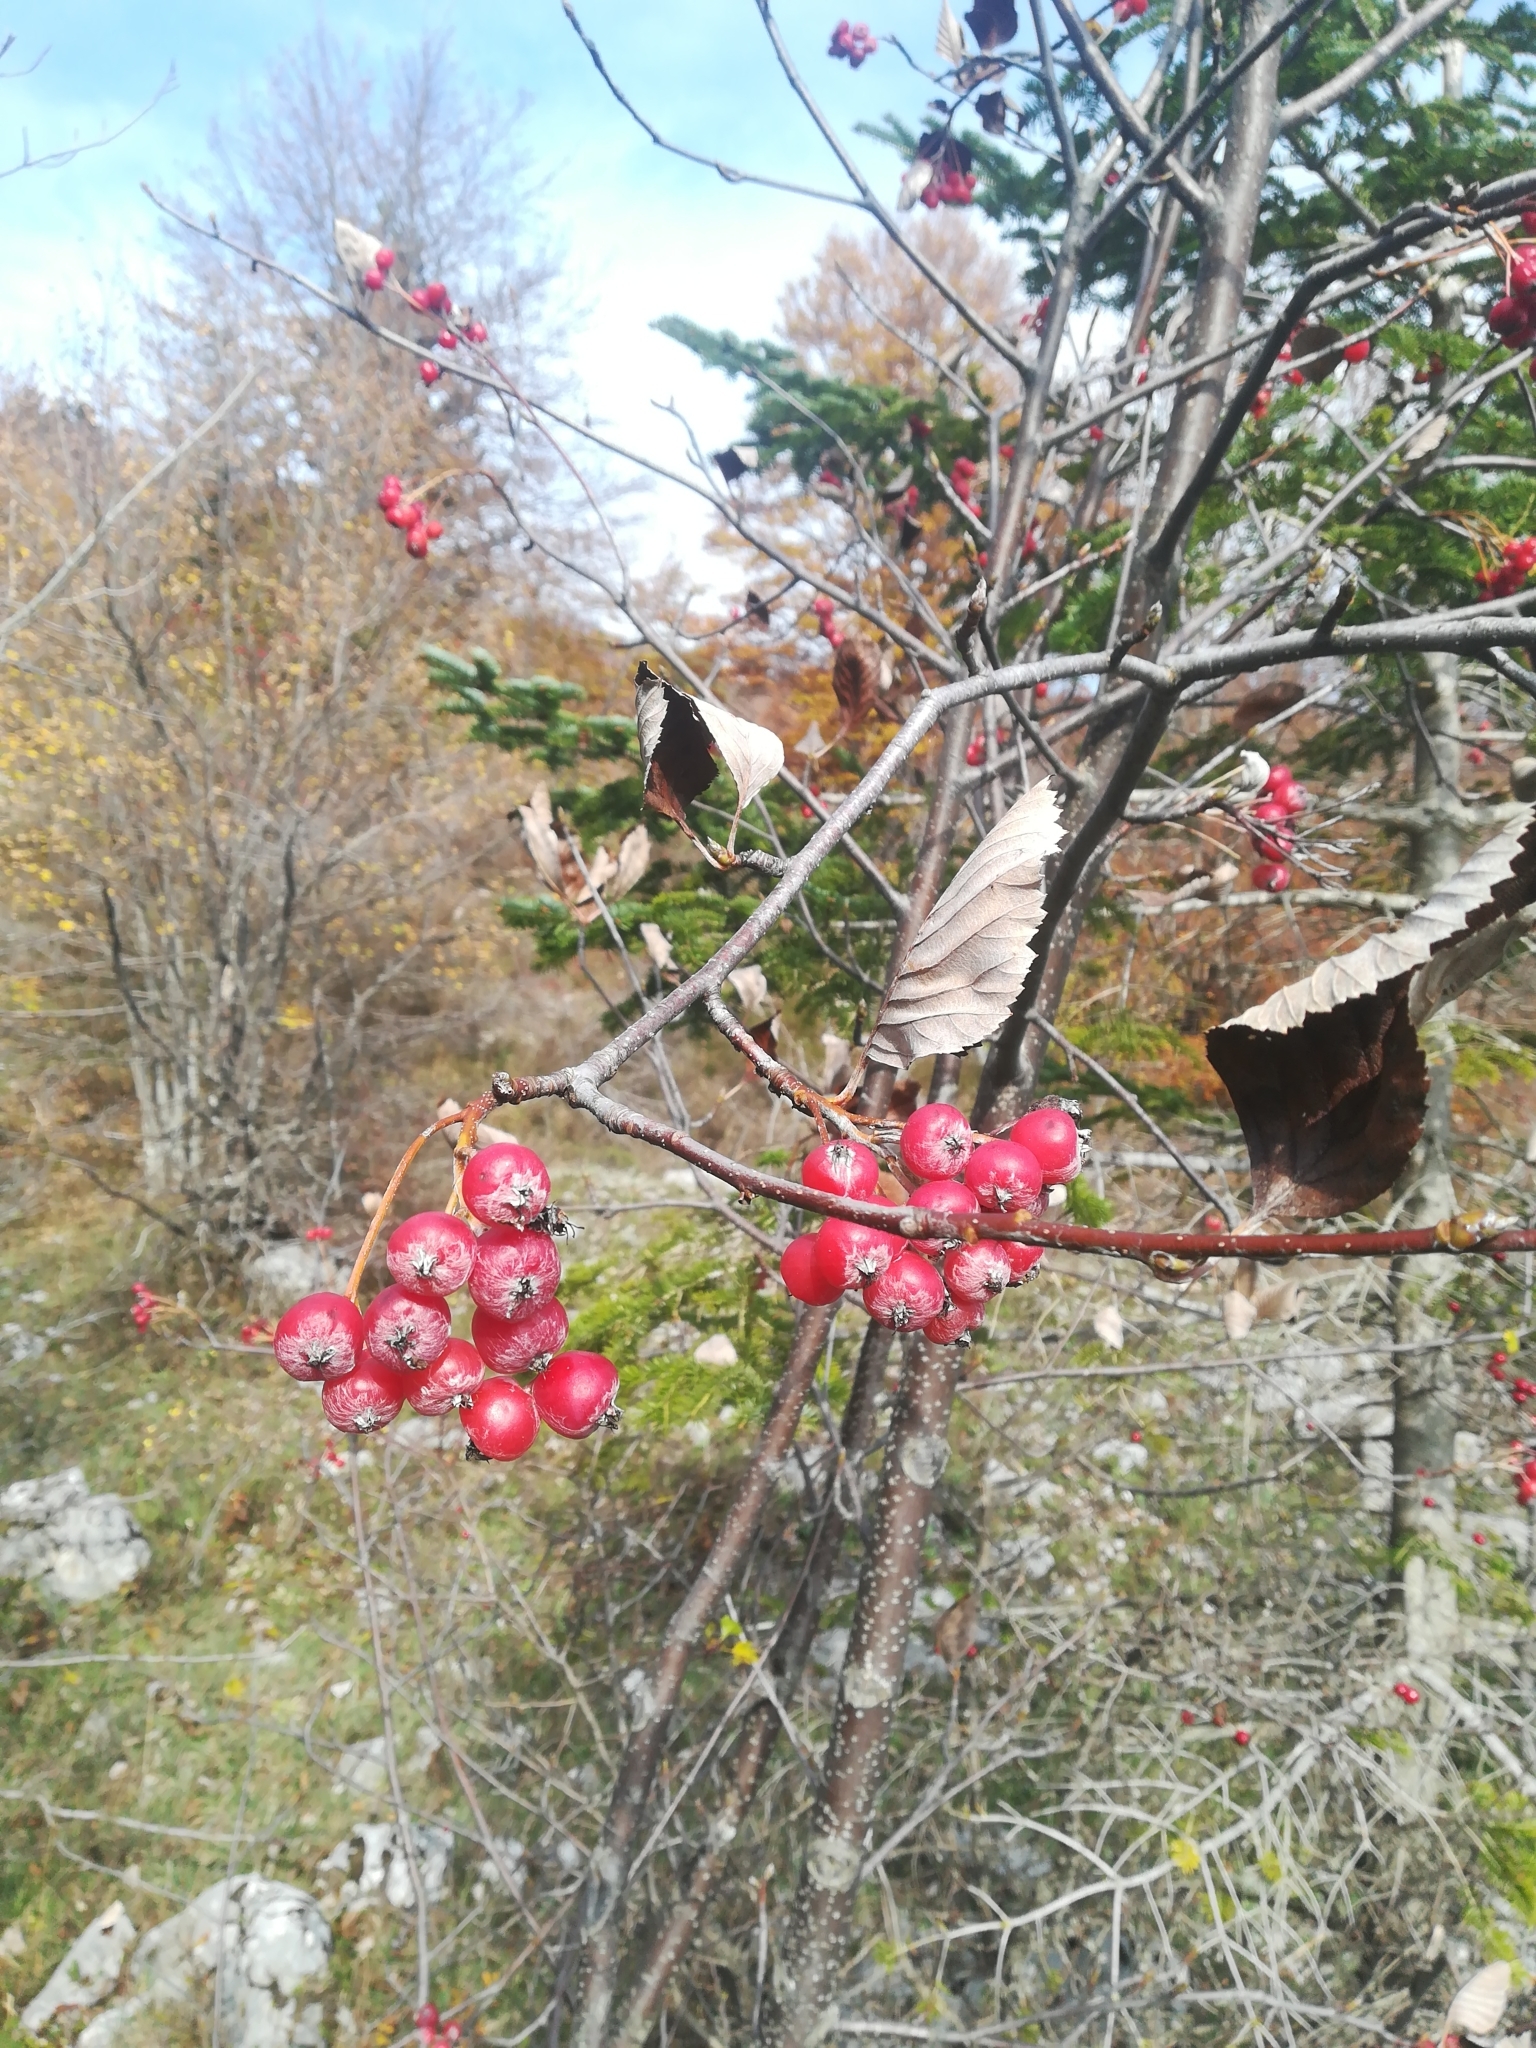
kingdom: Plantae
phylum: Tracheophyta
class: Magnoliopsida
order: Rosales
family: Rosaceae
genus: Aria
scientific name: Aria edulis
